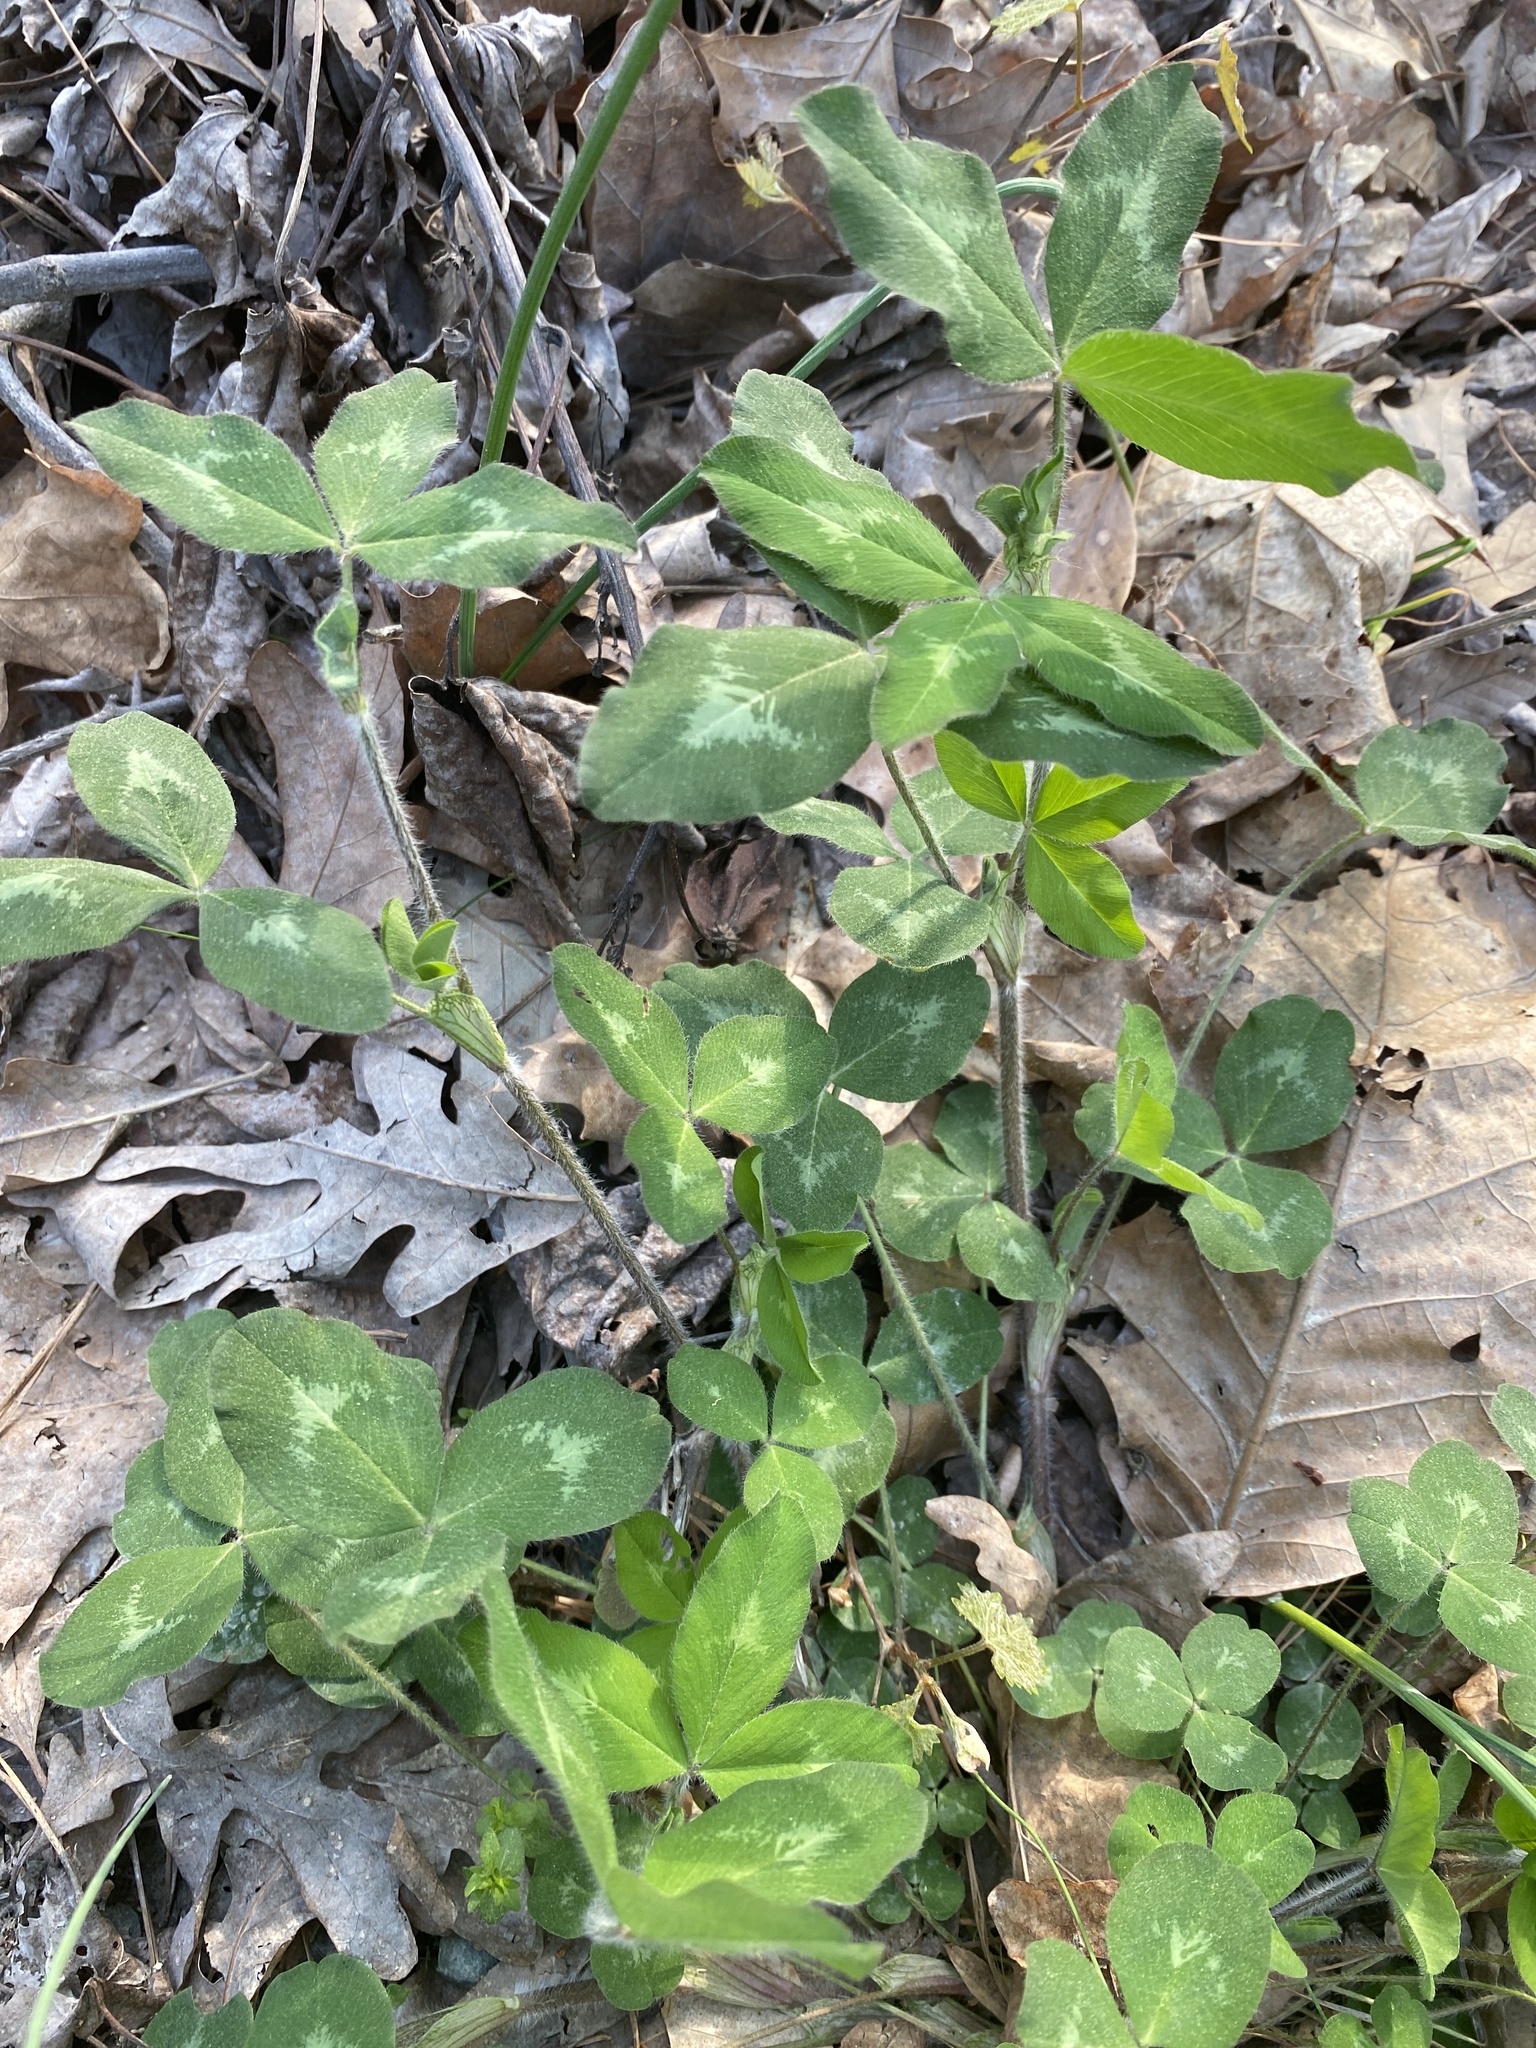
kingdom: Plantae
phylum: Tracheophyta
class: Magnoliopsida
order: Fabales
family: Fabaceae
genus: Trifolium
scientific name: Trifolium pratense
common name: Red clover
